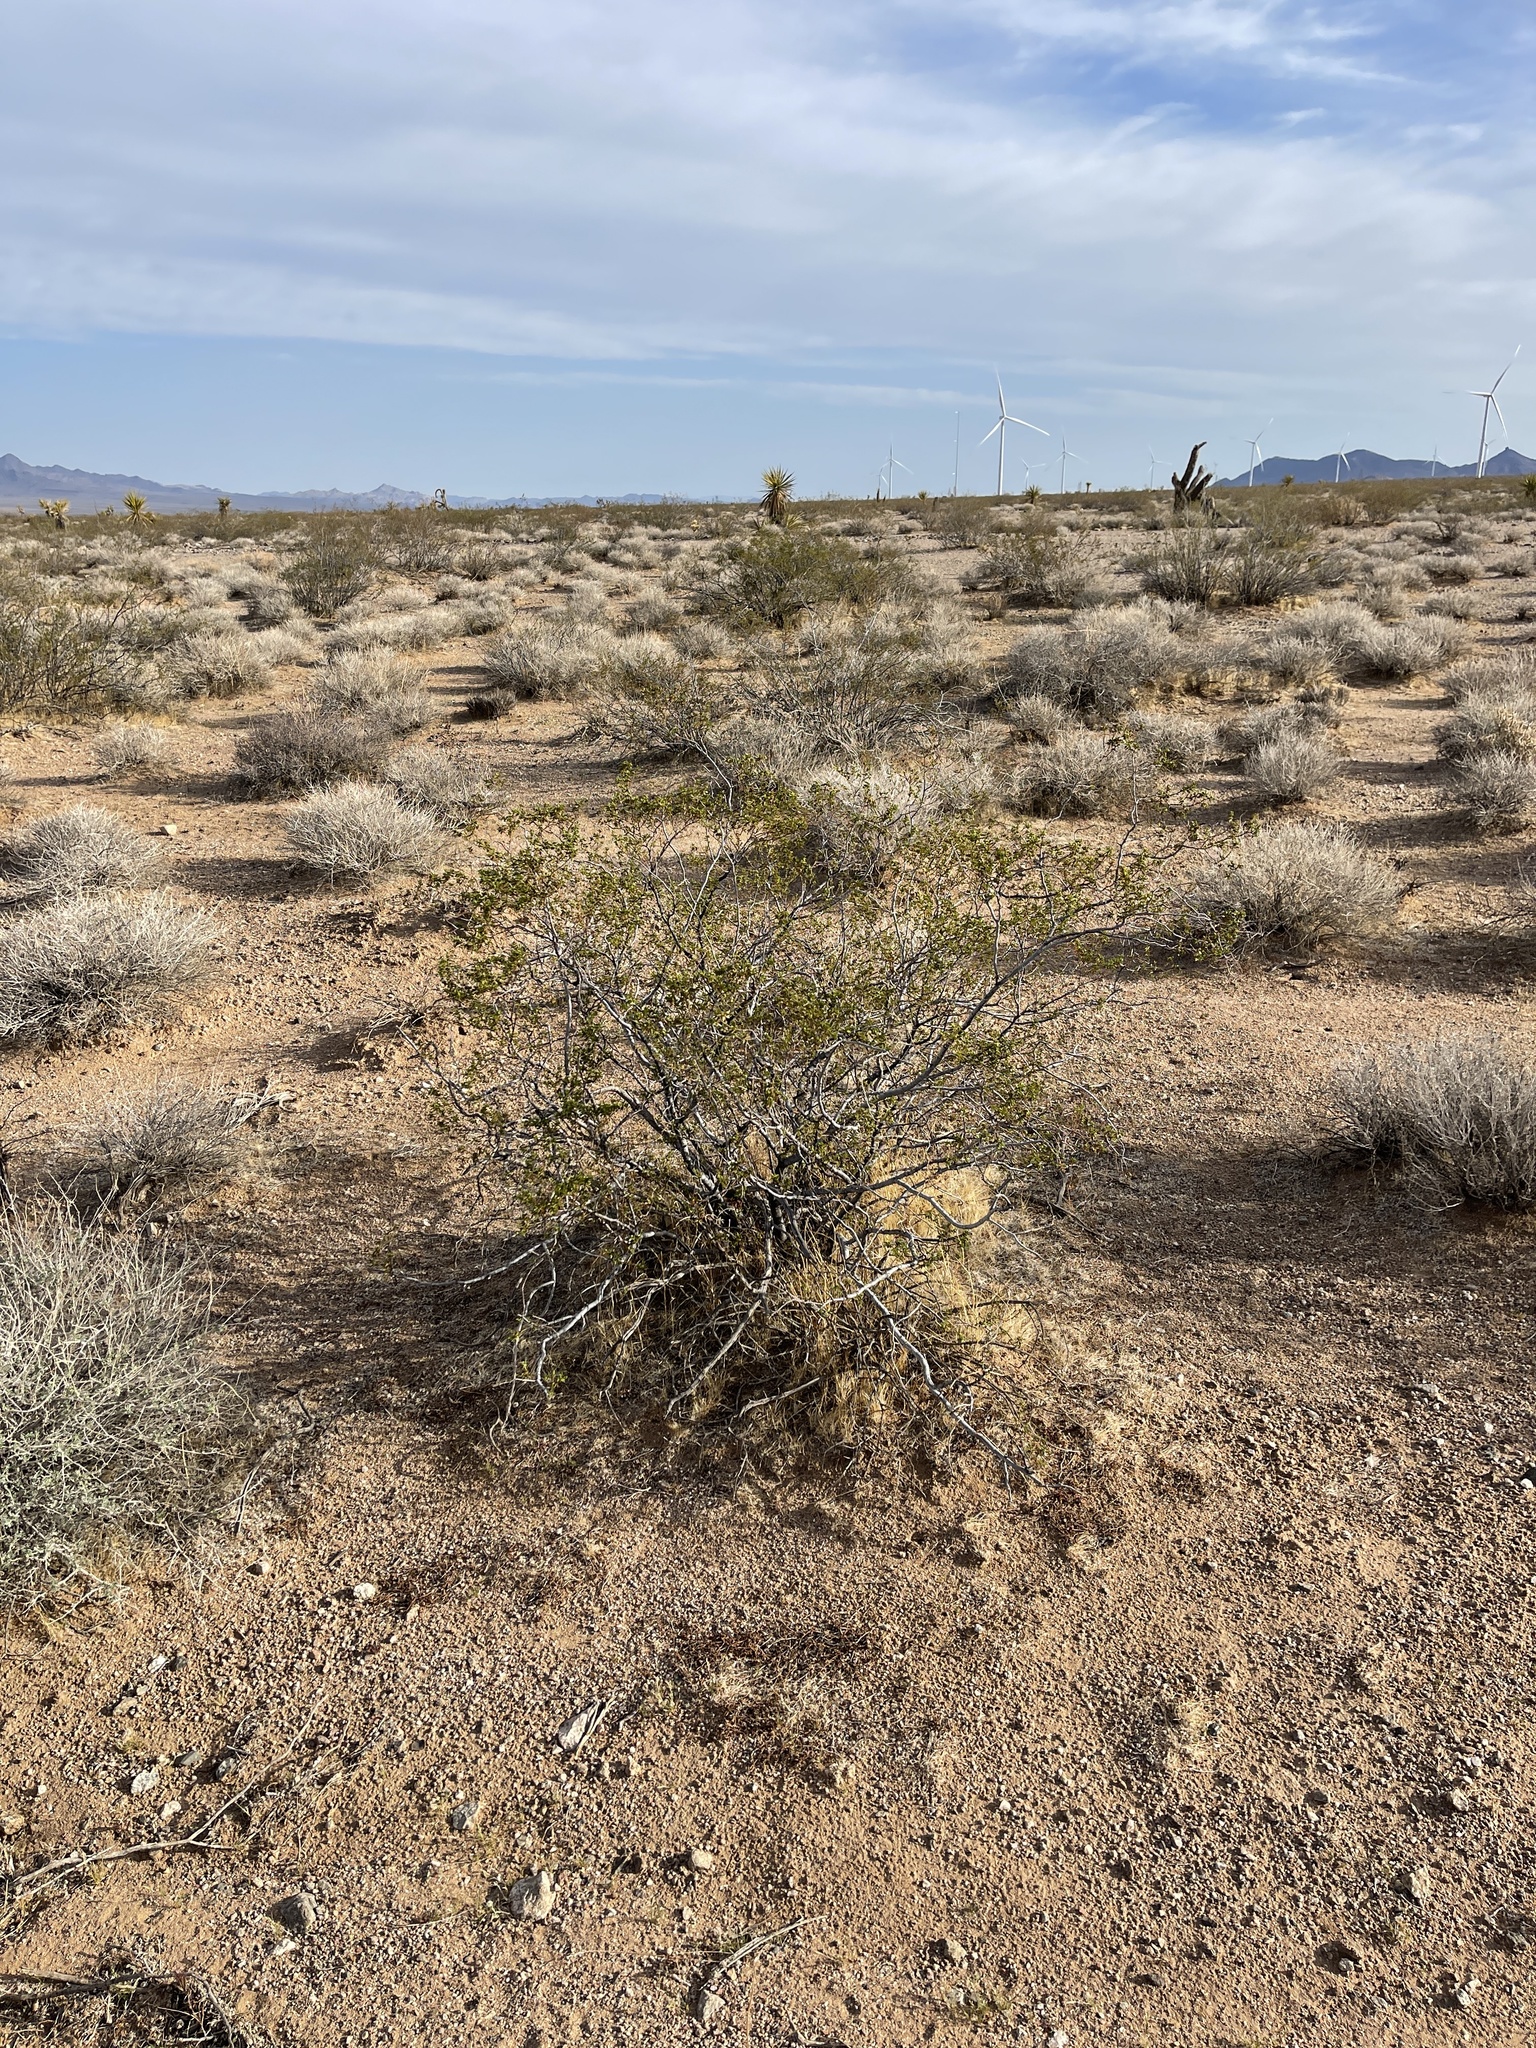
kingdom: Plantae
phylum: Tracheophyta
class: Magnoliopsida
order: Zygophyllales
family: Zygophyllaceae
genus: Larrea
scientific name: Larrea tridentata
